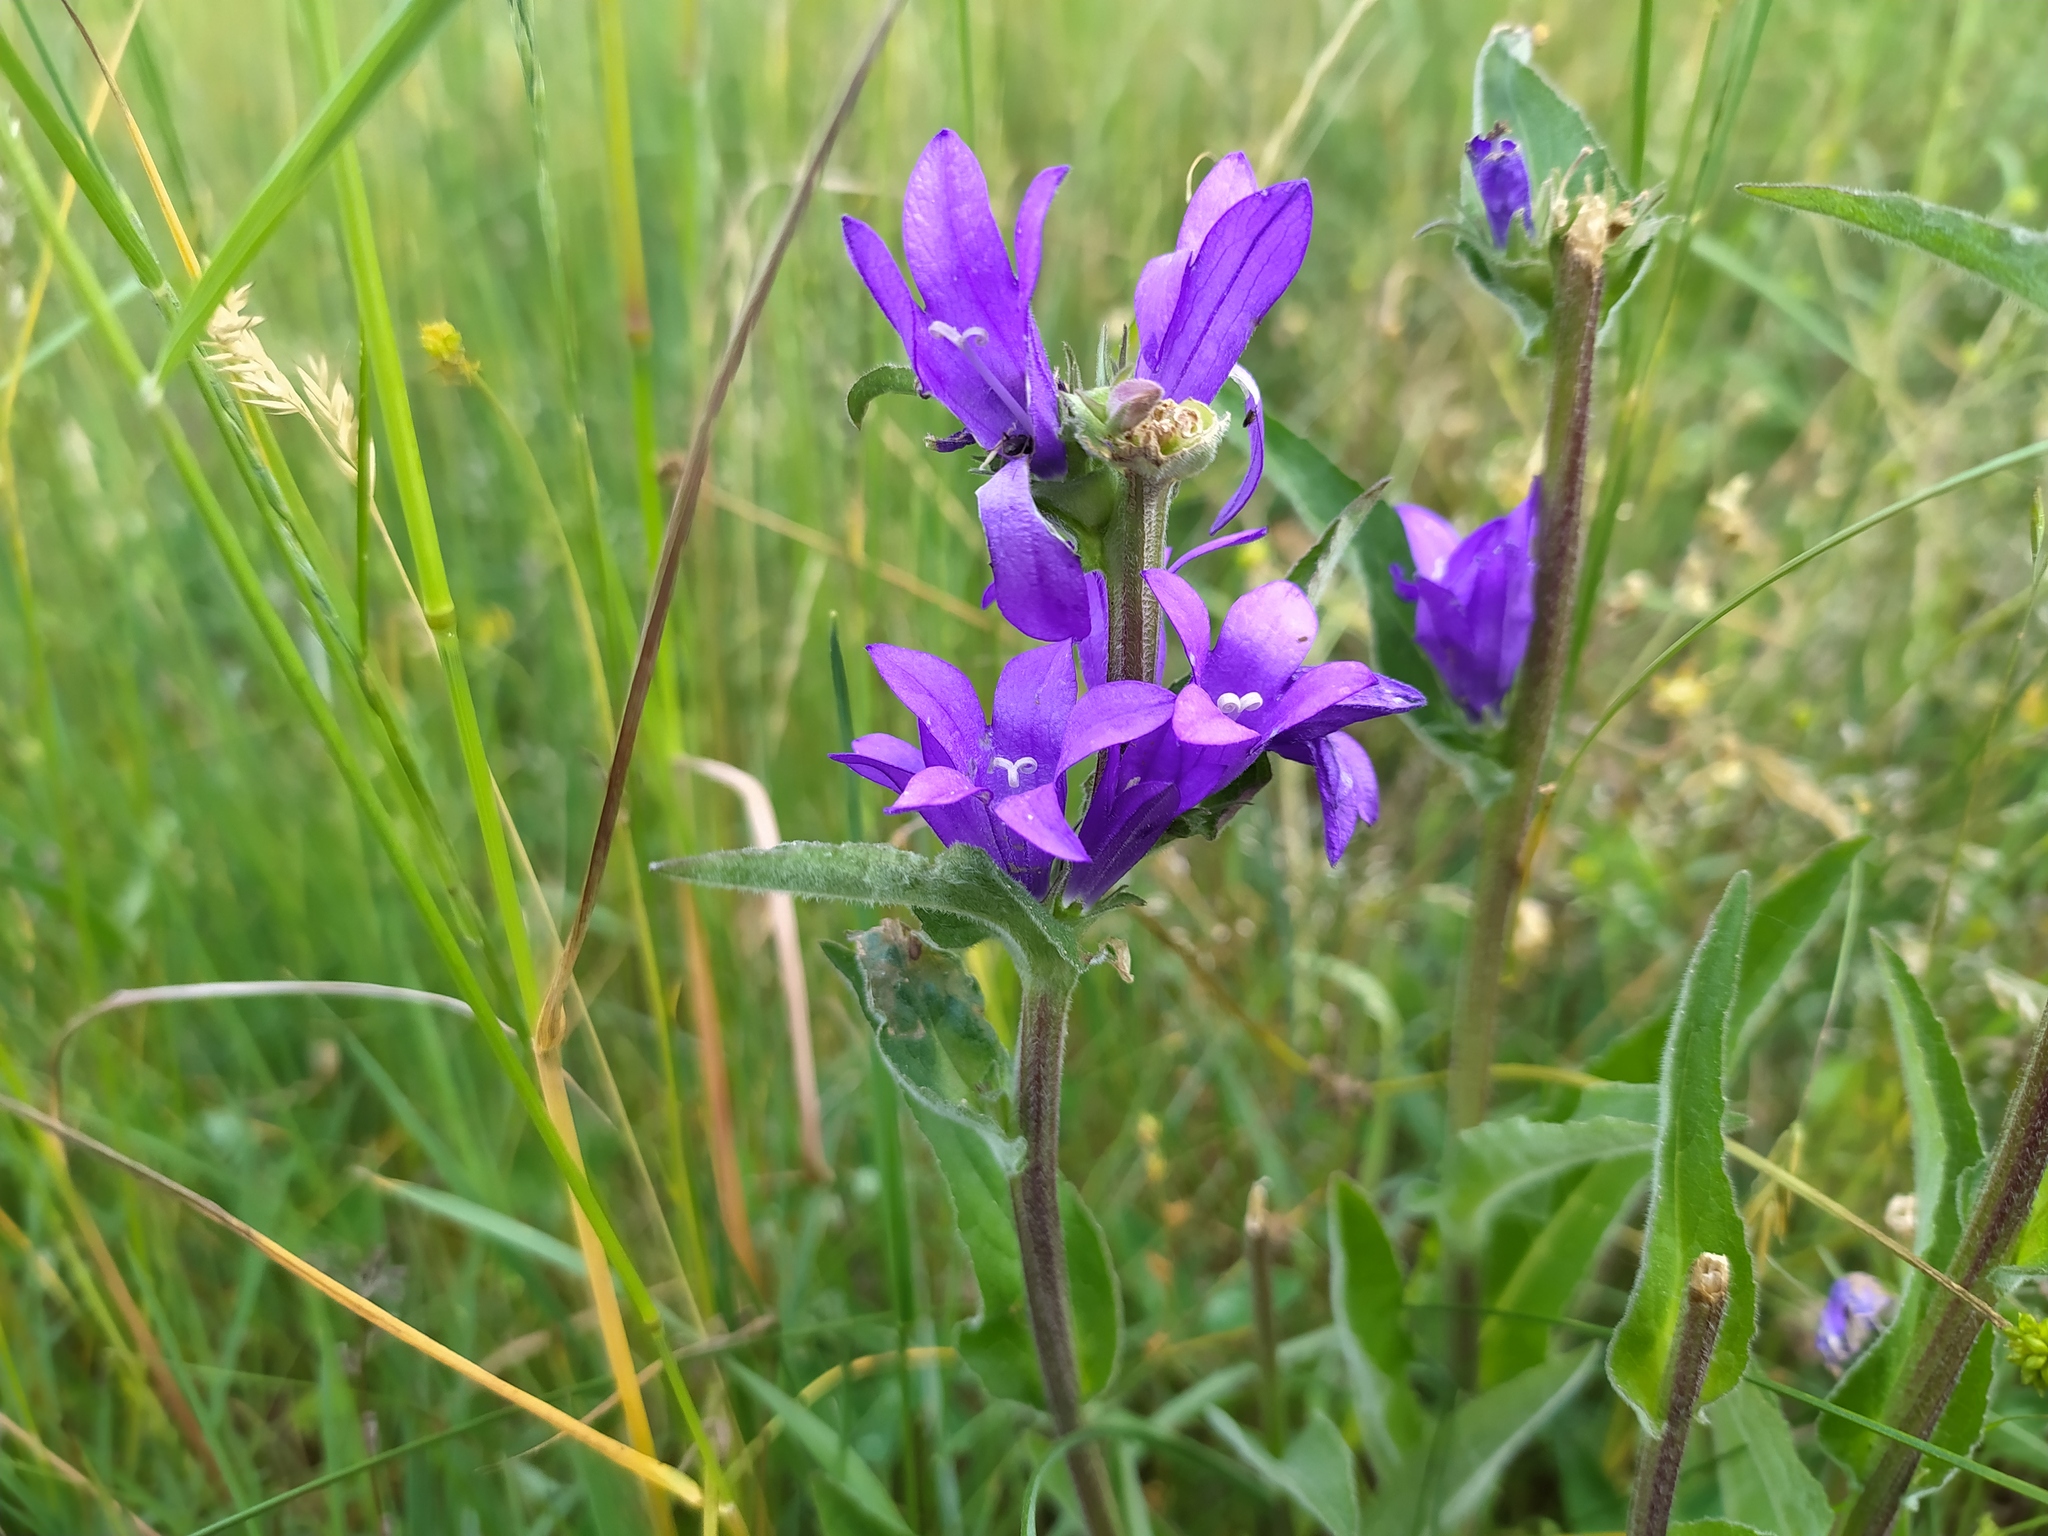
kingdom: Plantae
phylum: Tracheophyta
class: Magnoliopsida
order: Asterales
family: Campanulaceae
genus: Campanula
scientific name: Campanula glomerata
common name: Clustered bellflower
